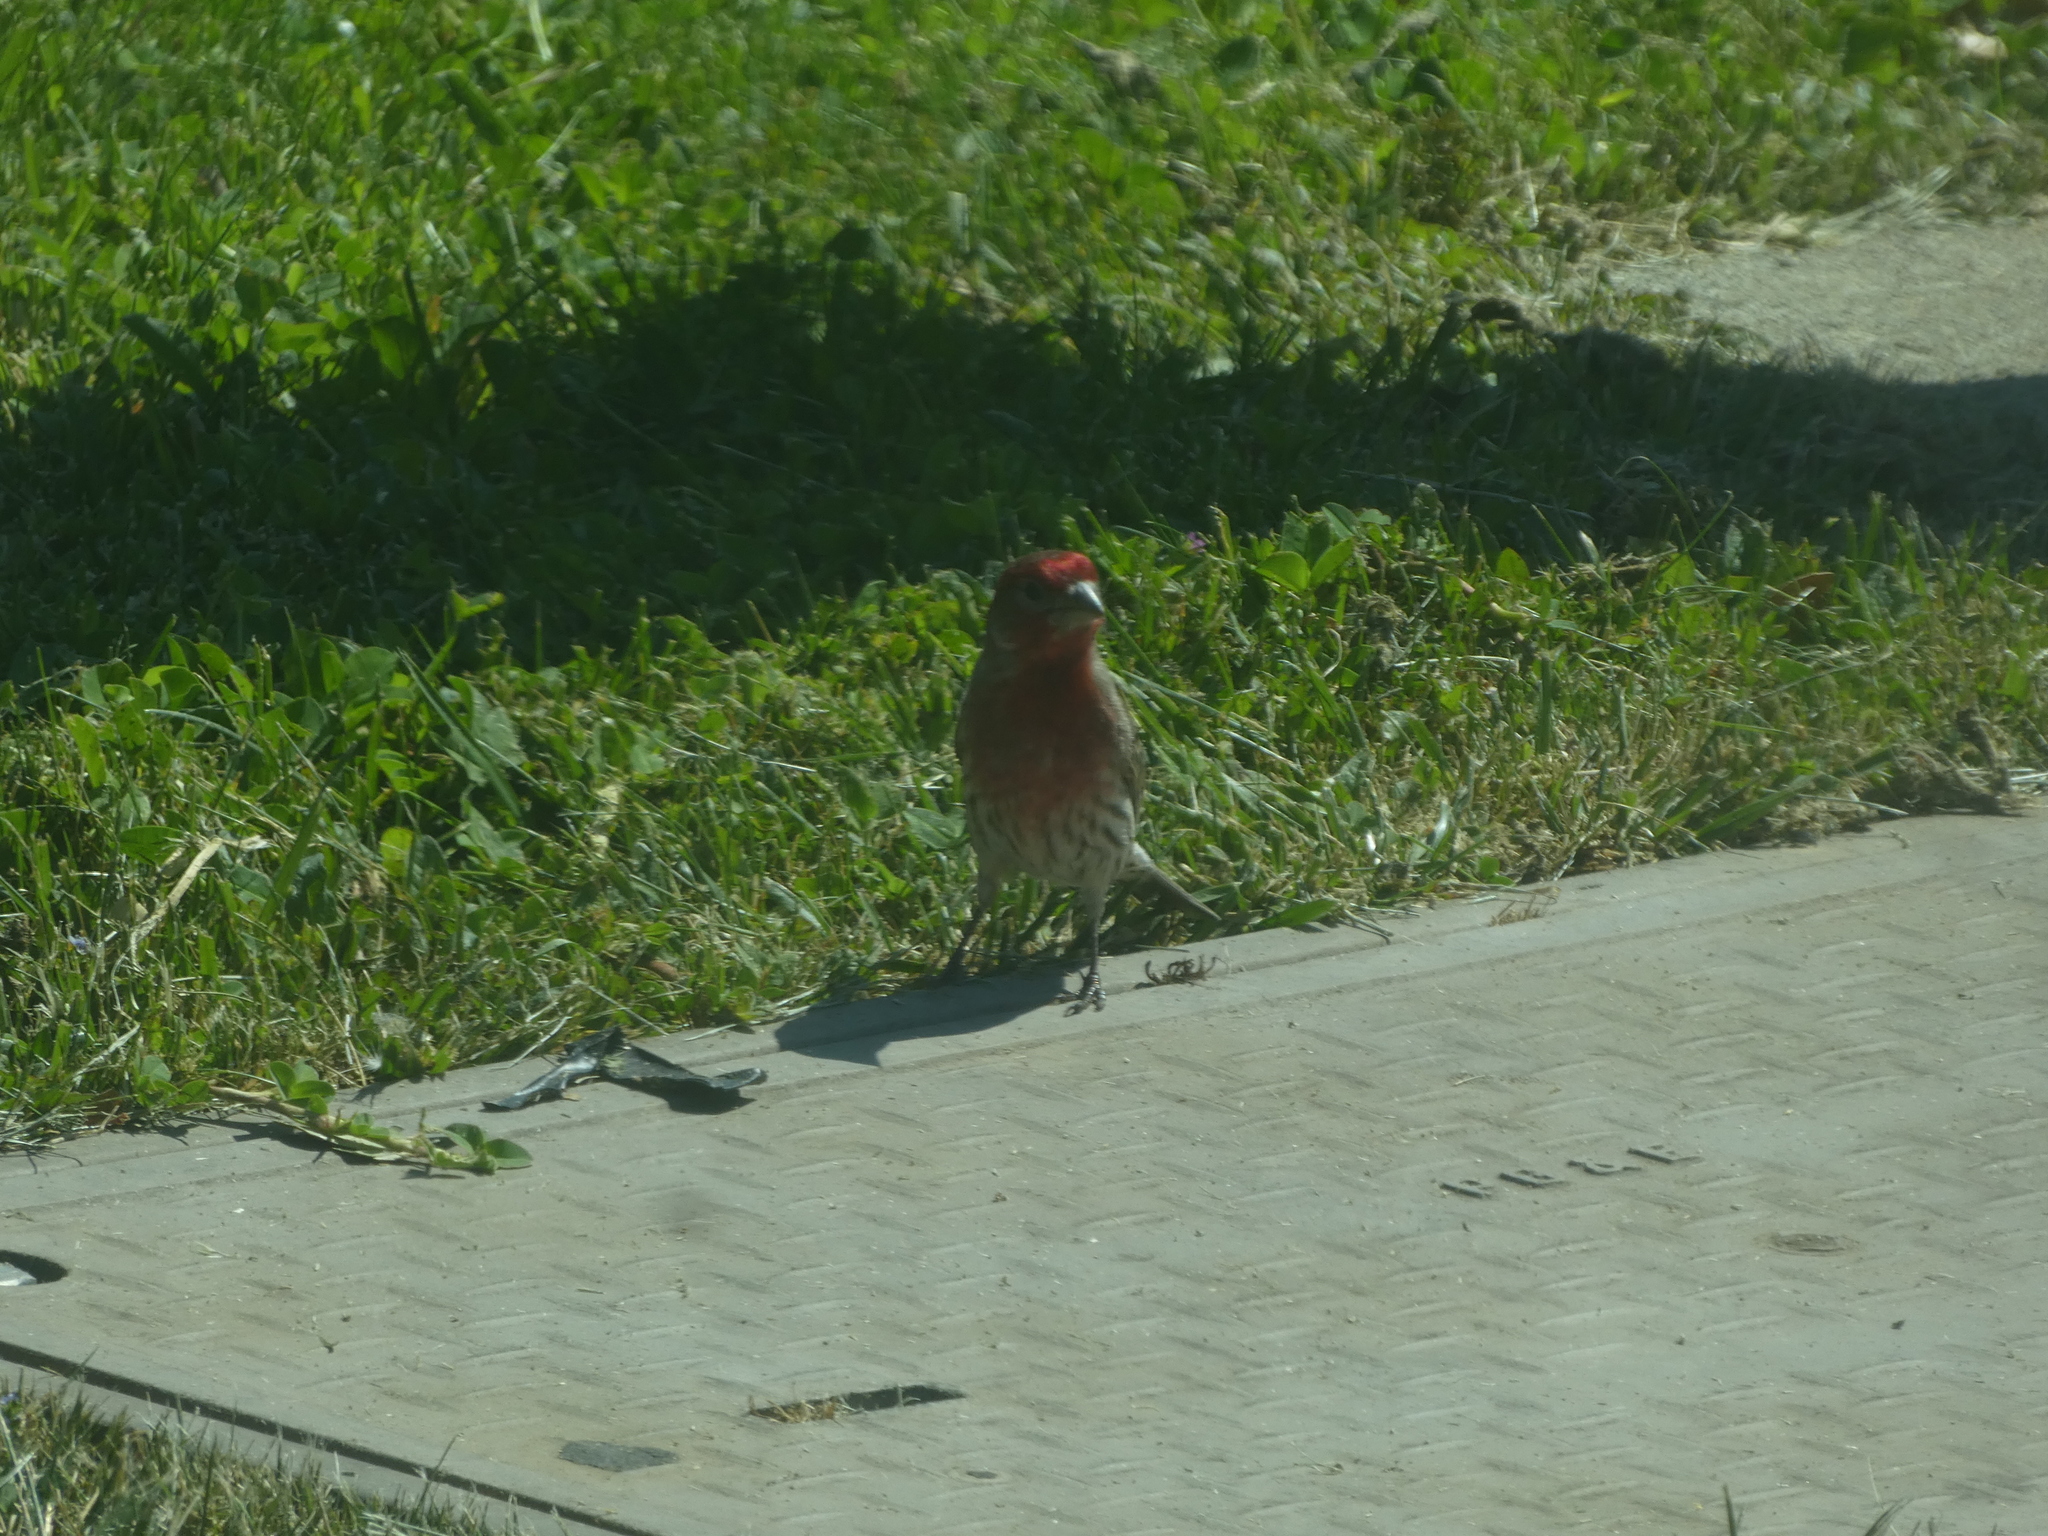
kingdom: Animalia
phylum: Chordata
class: Aves
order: Passeriformes
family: Fringillidae
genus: Haemorhous
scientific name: Haemorhous mexicanus
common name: House finch
